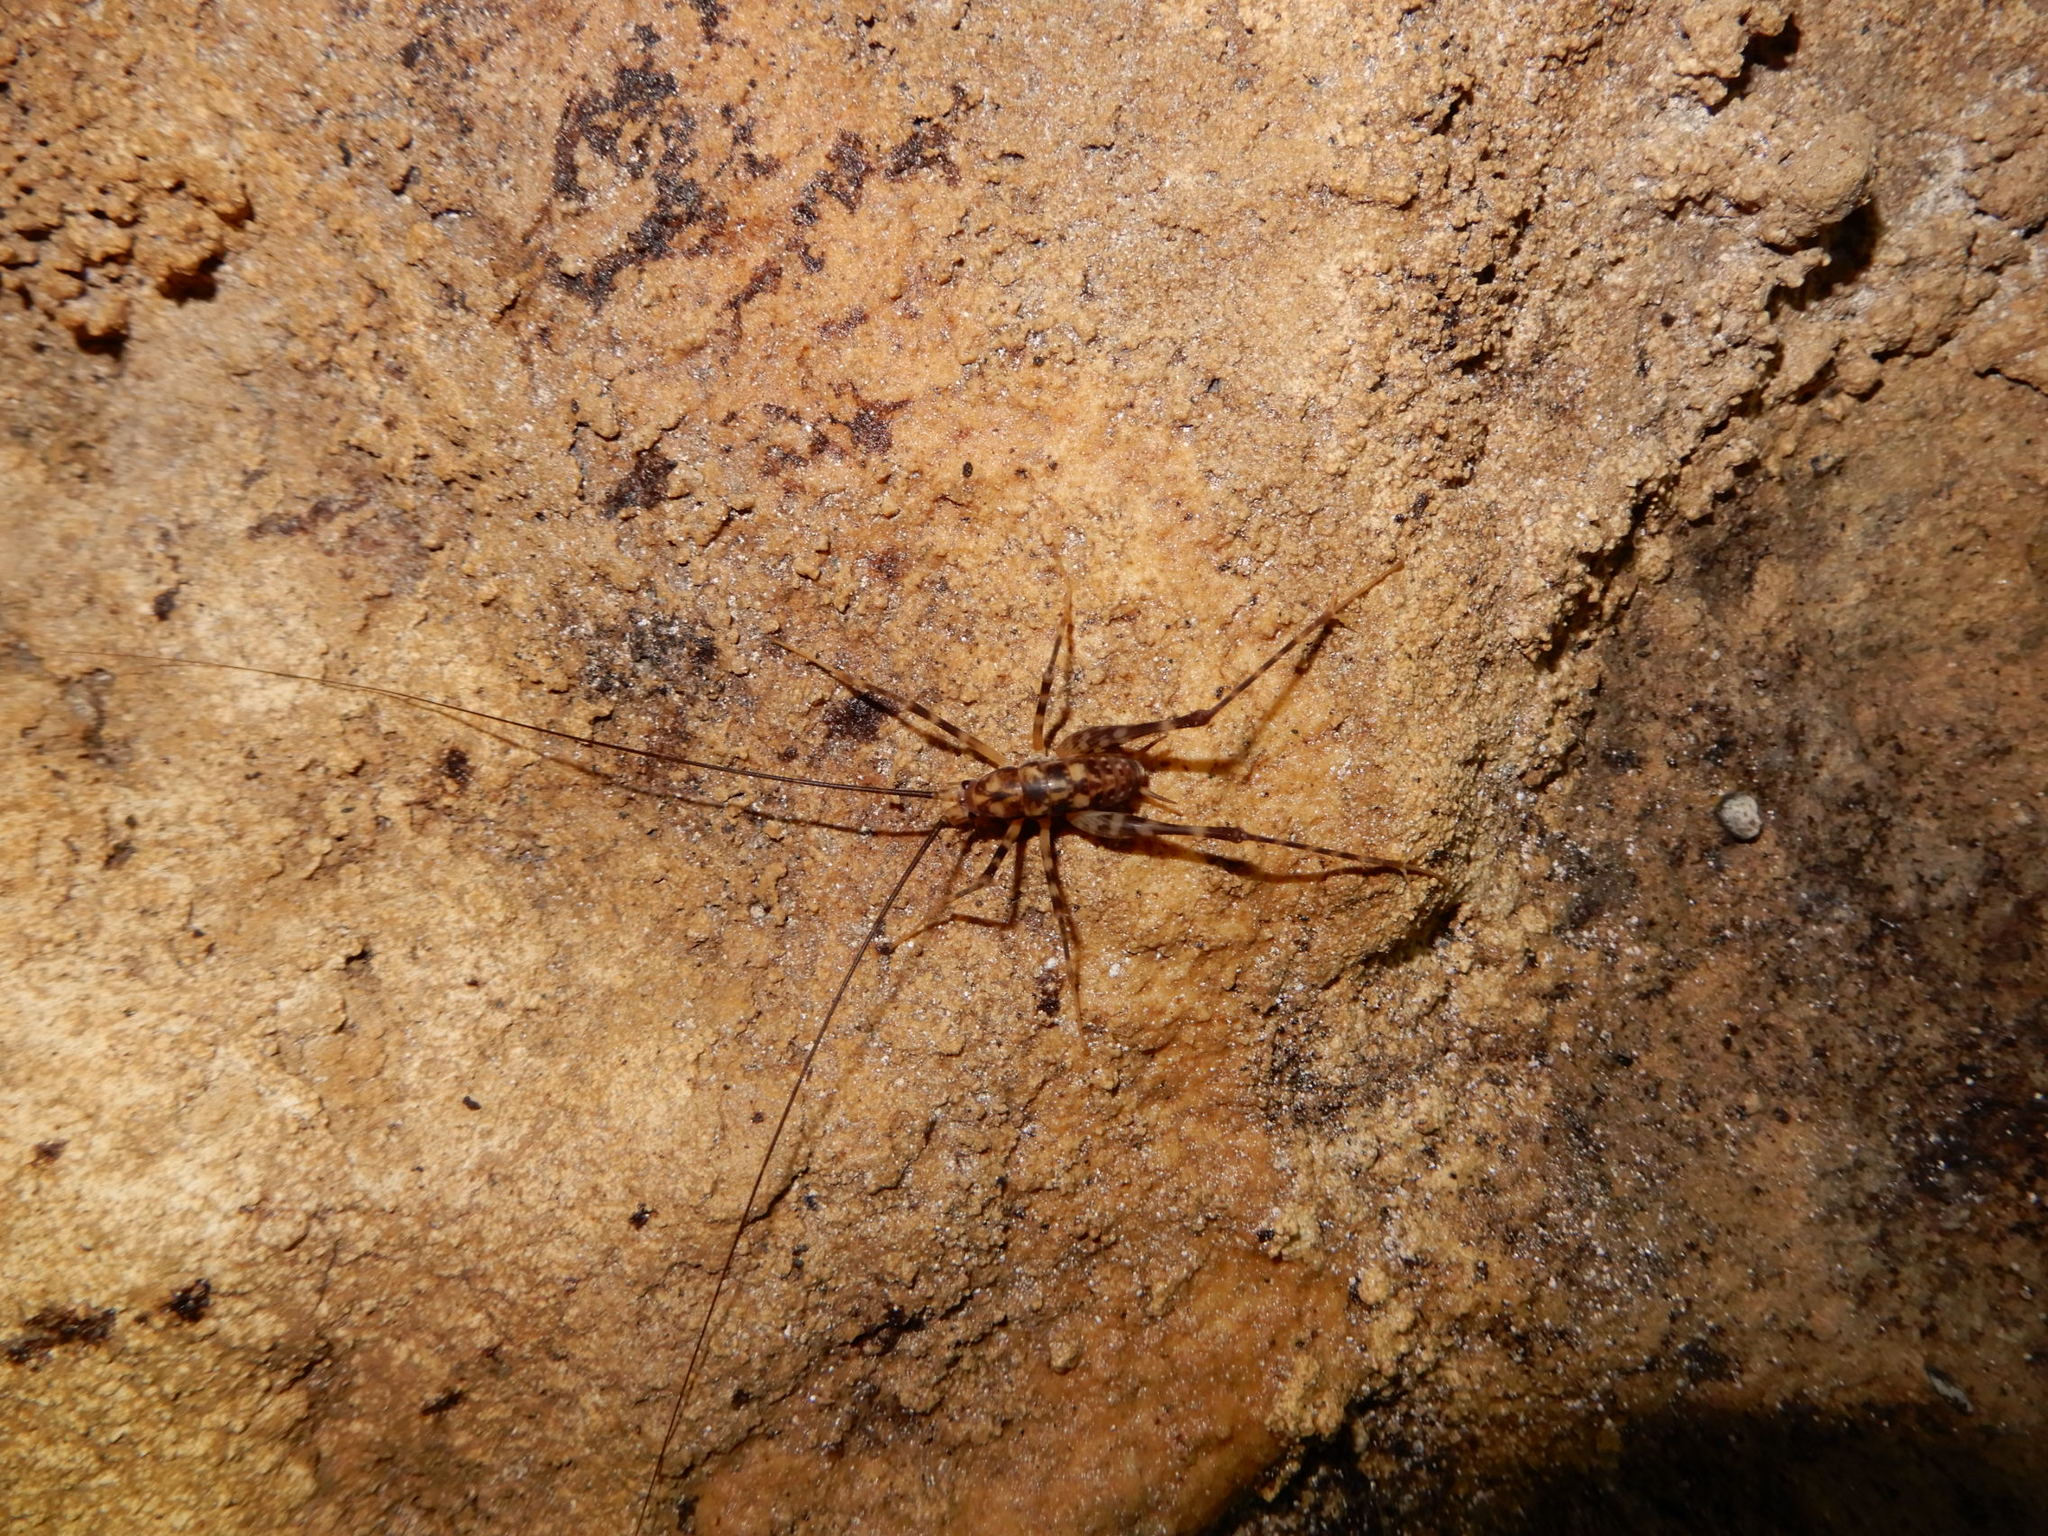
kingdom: Animalia
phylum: Arthropoda
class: Insecta
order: Orthoptera
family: Rhaphidophoridae
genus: Miotopus
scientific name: Miotopus richardsae
